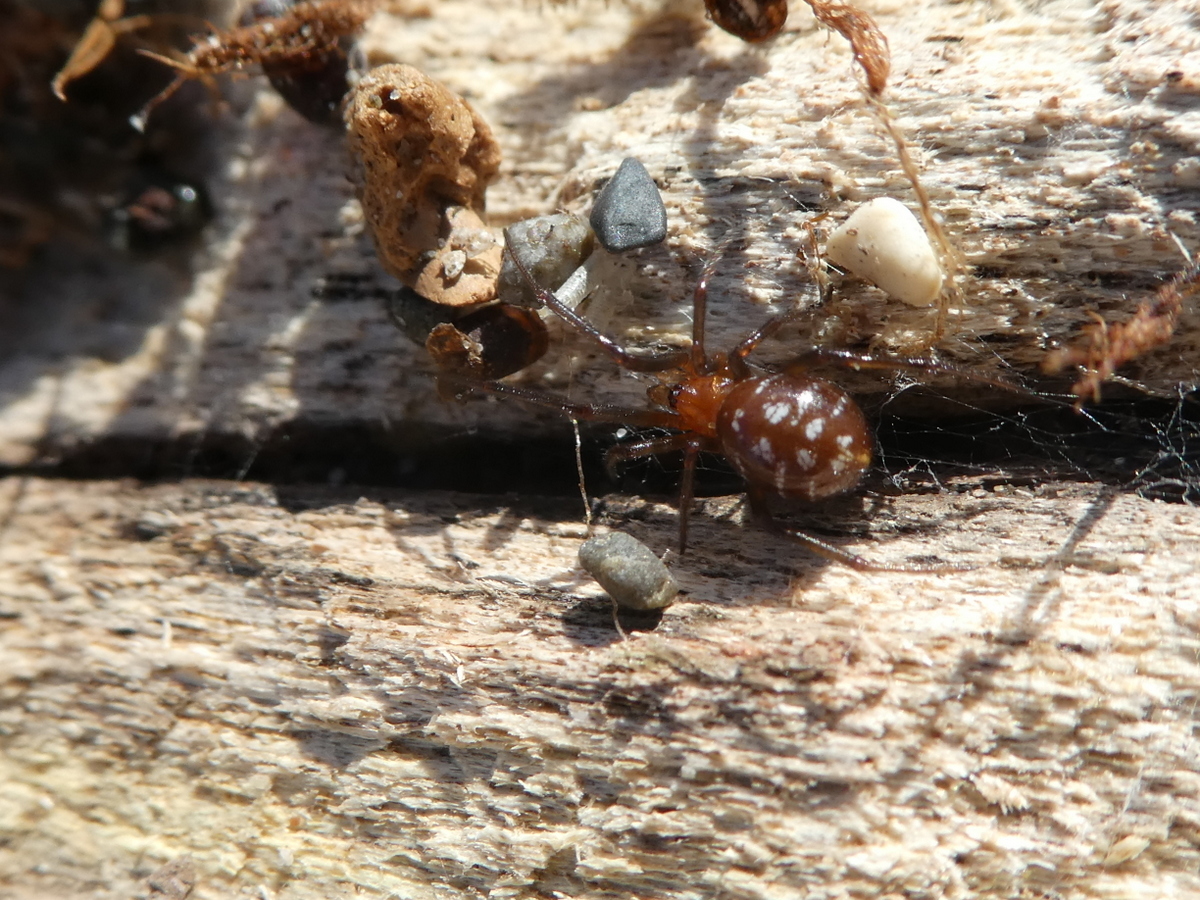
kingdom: Animalia
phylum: Arthropoda
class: Arachnida
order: Araneae
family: Theridiidae
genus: Steatoda
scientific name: Steatoda capensis
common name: Cobweb weaver
